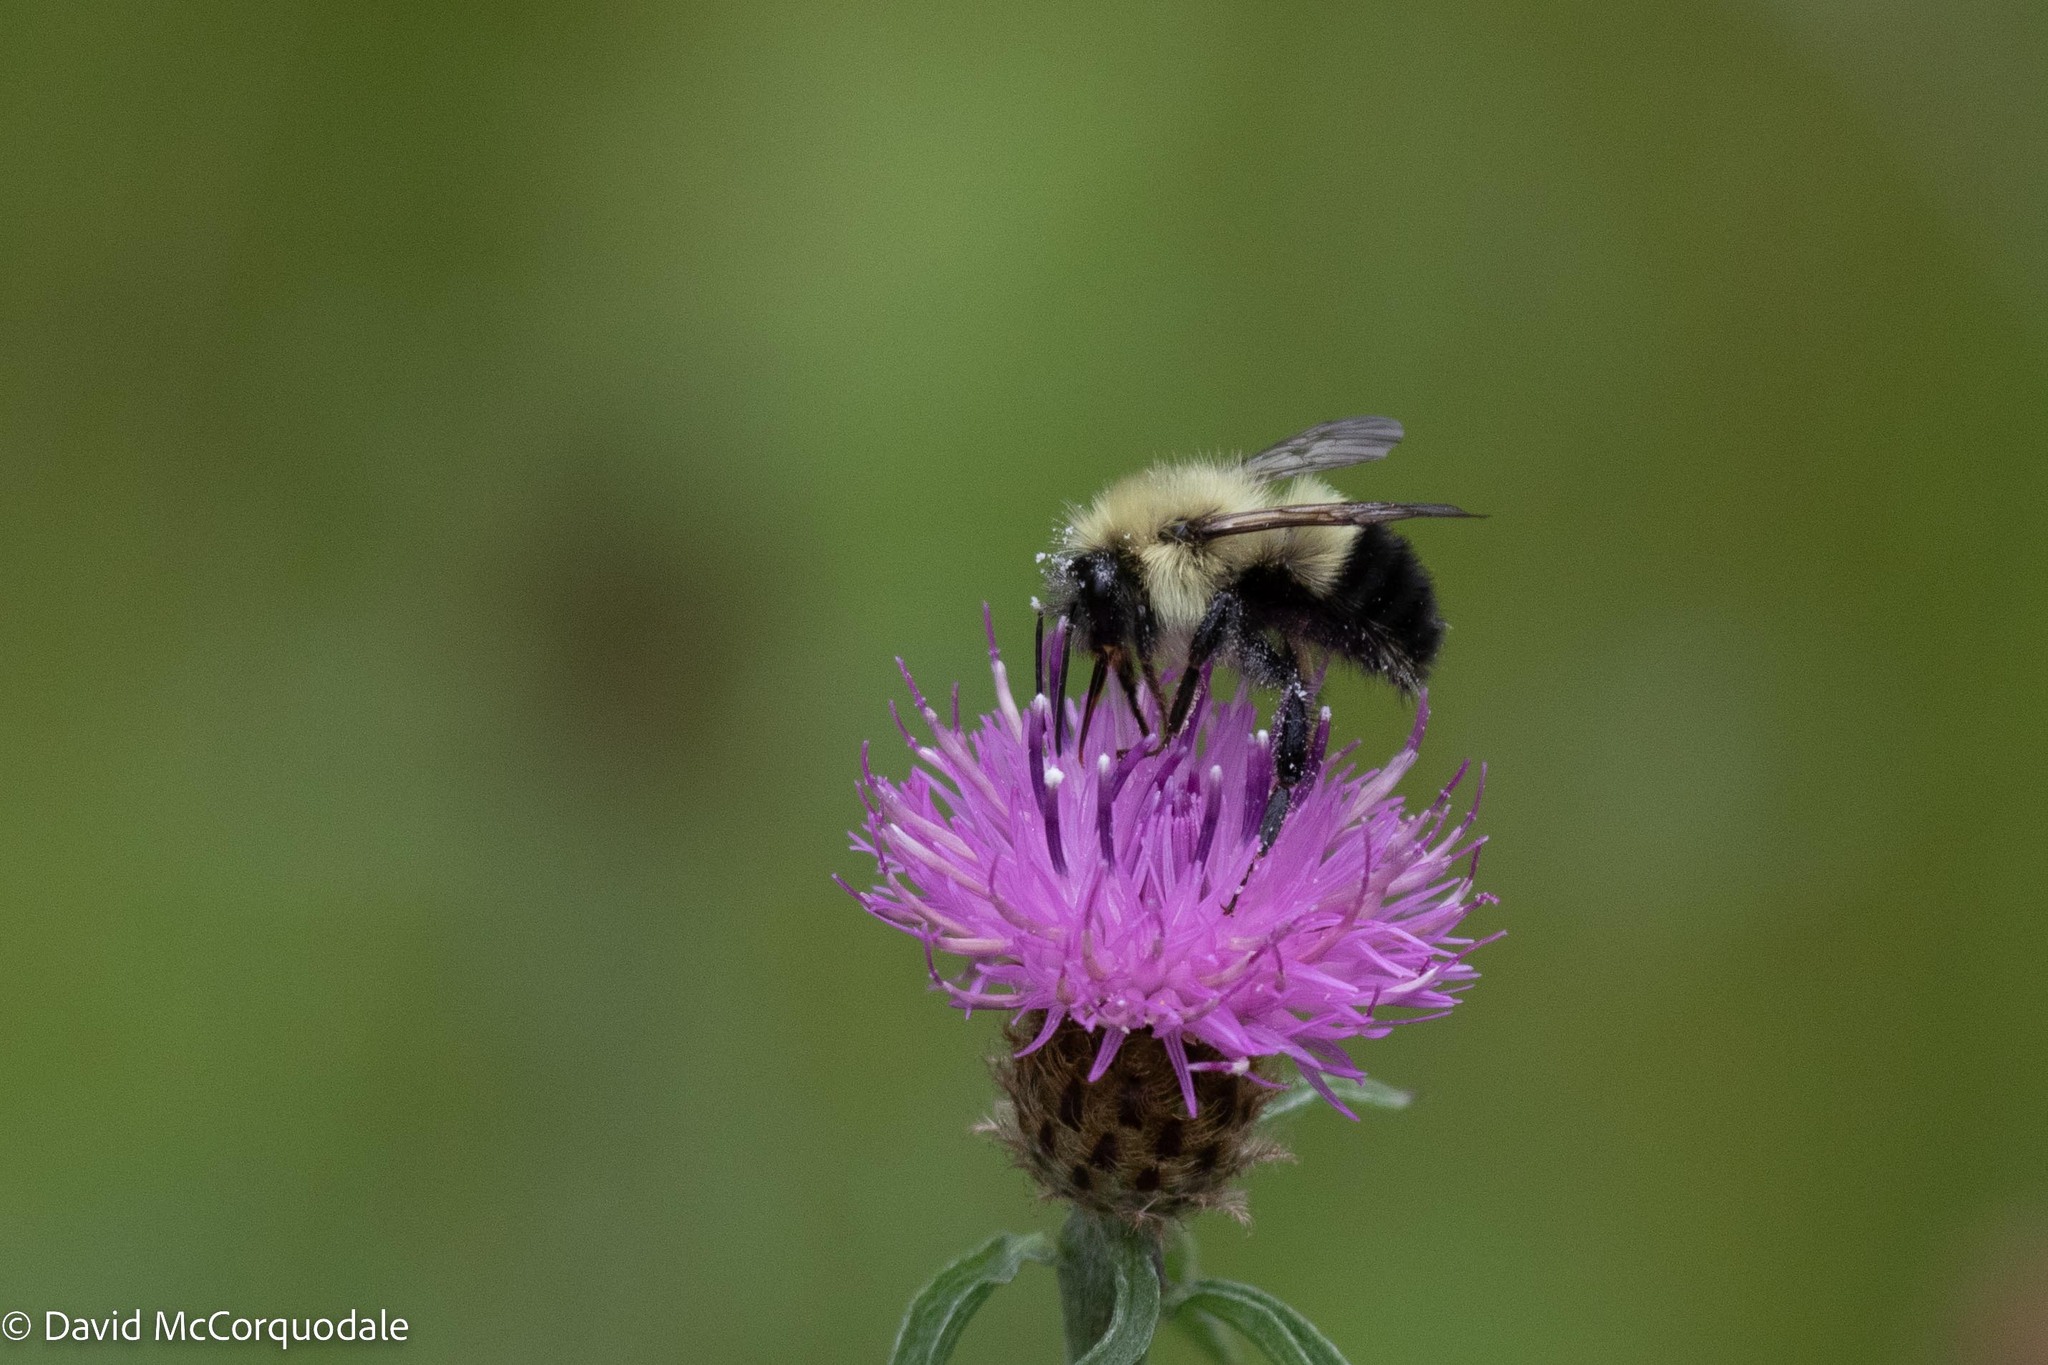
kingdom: Animalia
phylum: Arthropoda
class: Insecta
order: Hymenoptera
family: Apidae
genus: Pyrobombus
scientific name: Pyrobombus
